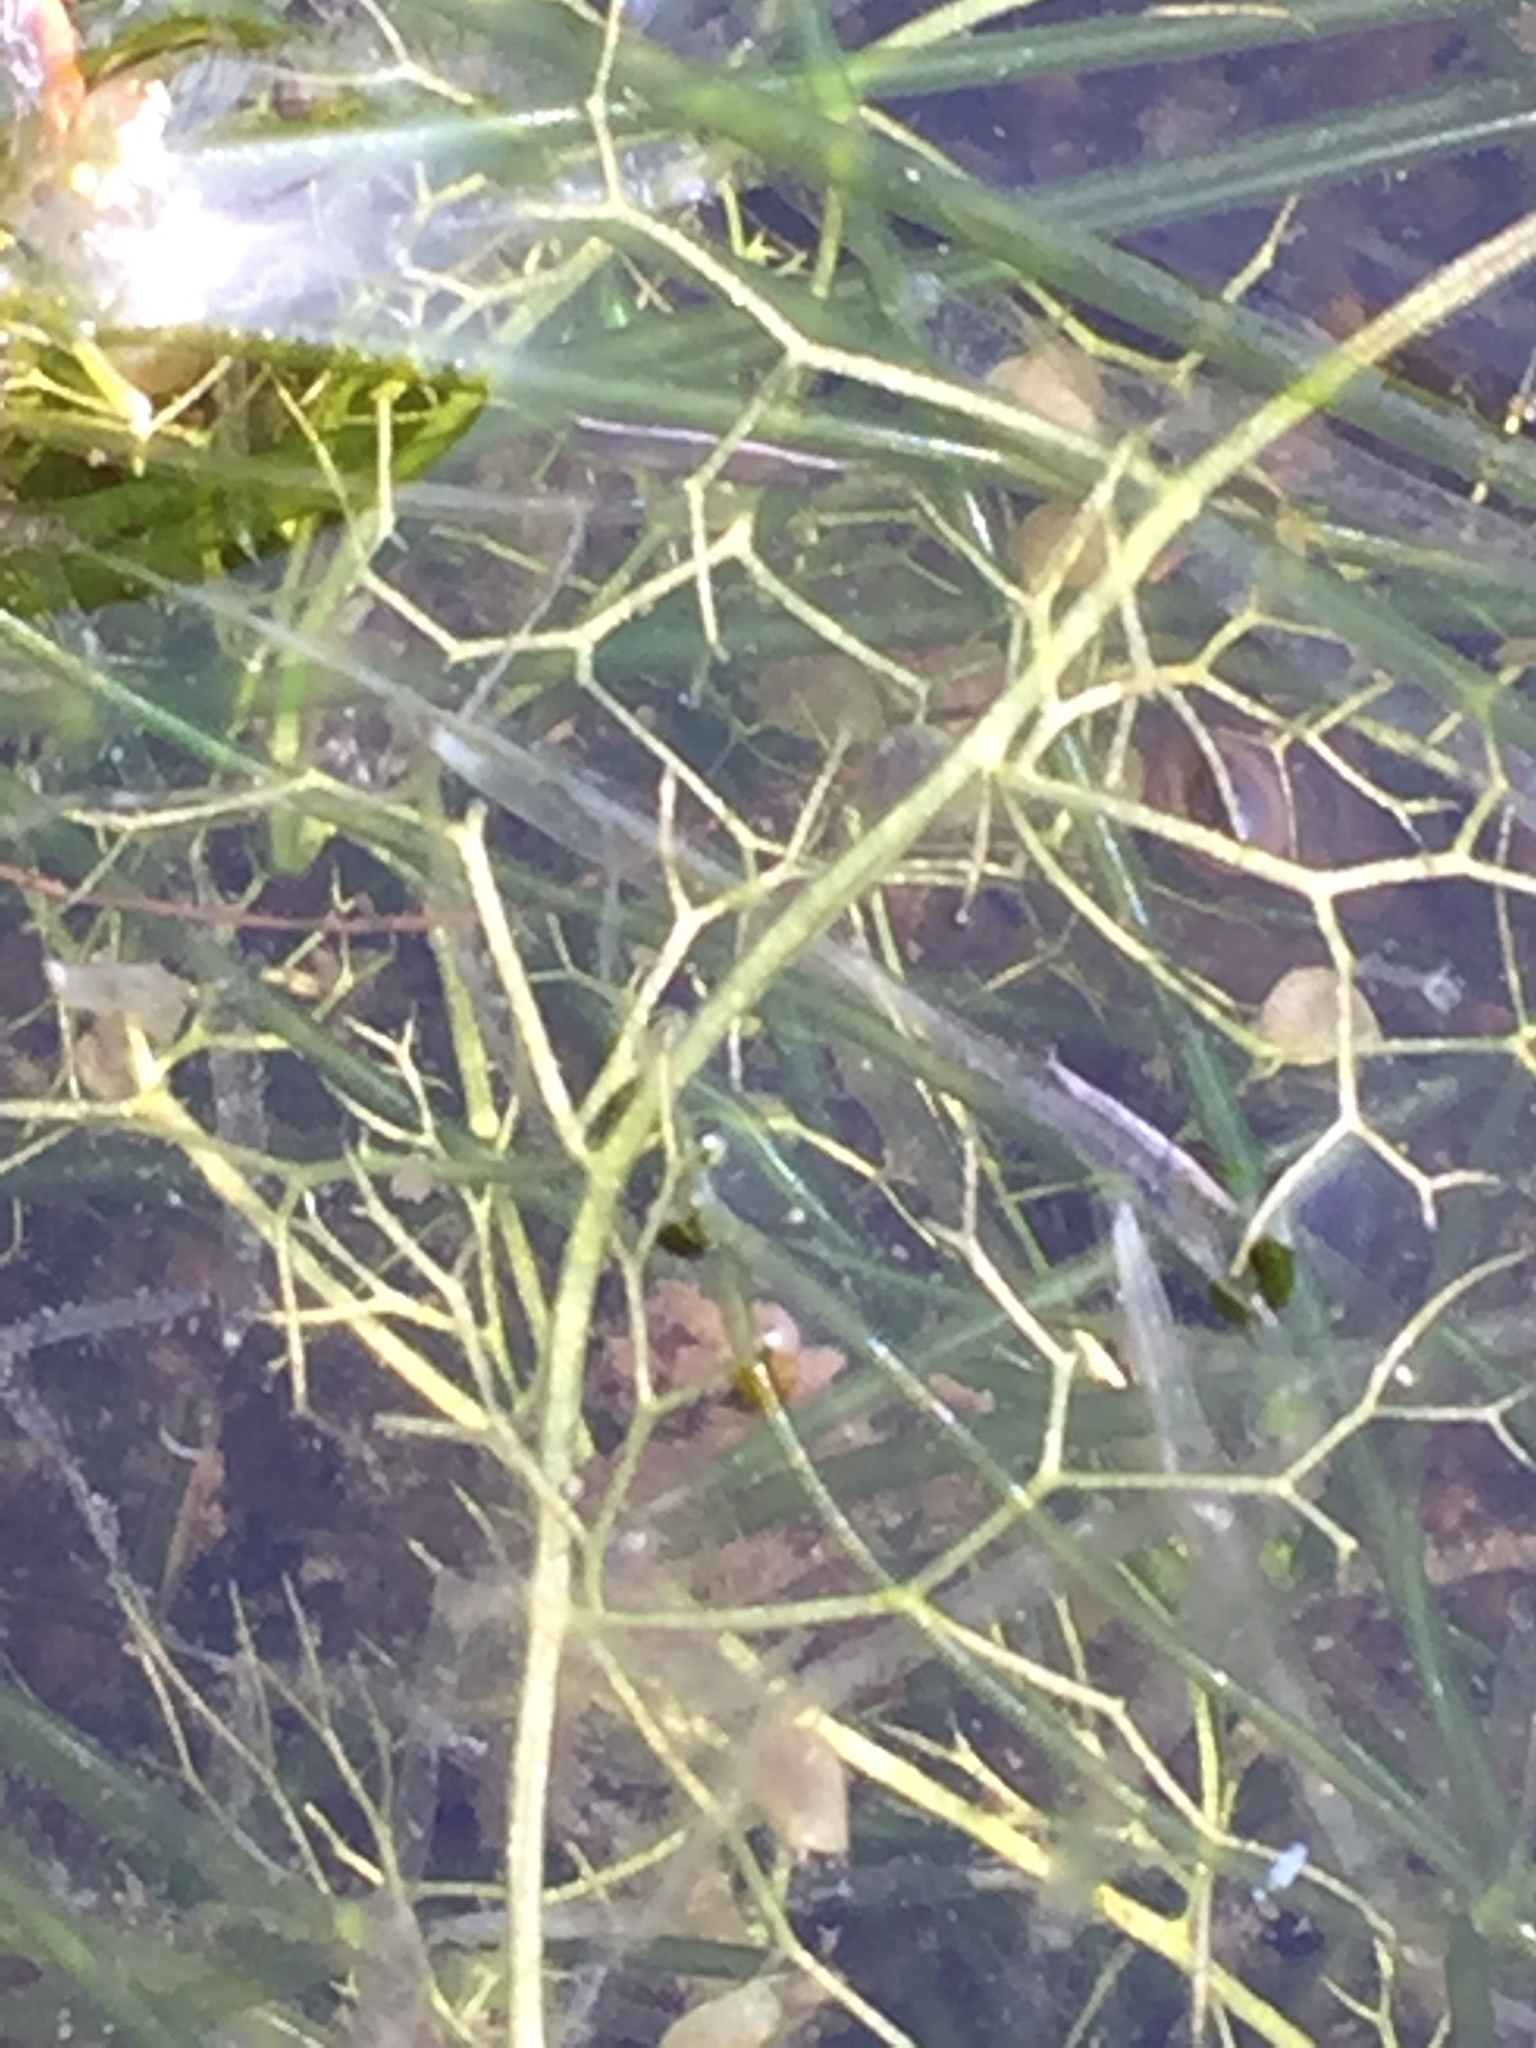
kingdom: Plantae
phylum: Tracheophyta
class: Magnoliopsida
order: Lamiales
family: Lentibulariaceae
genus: Utricularia
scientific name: Utricularia
